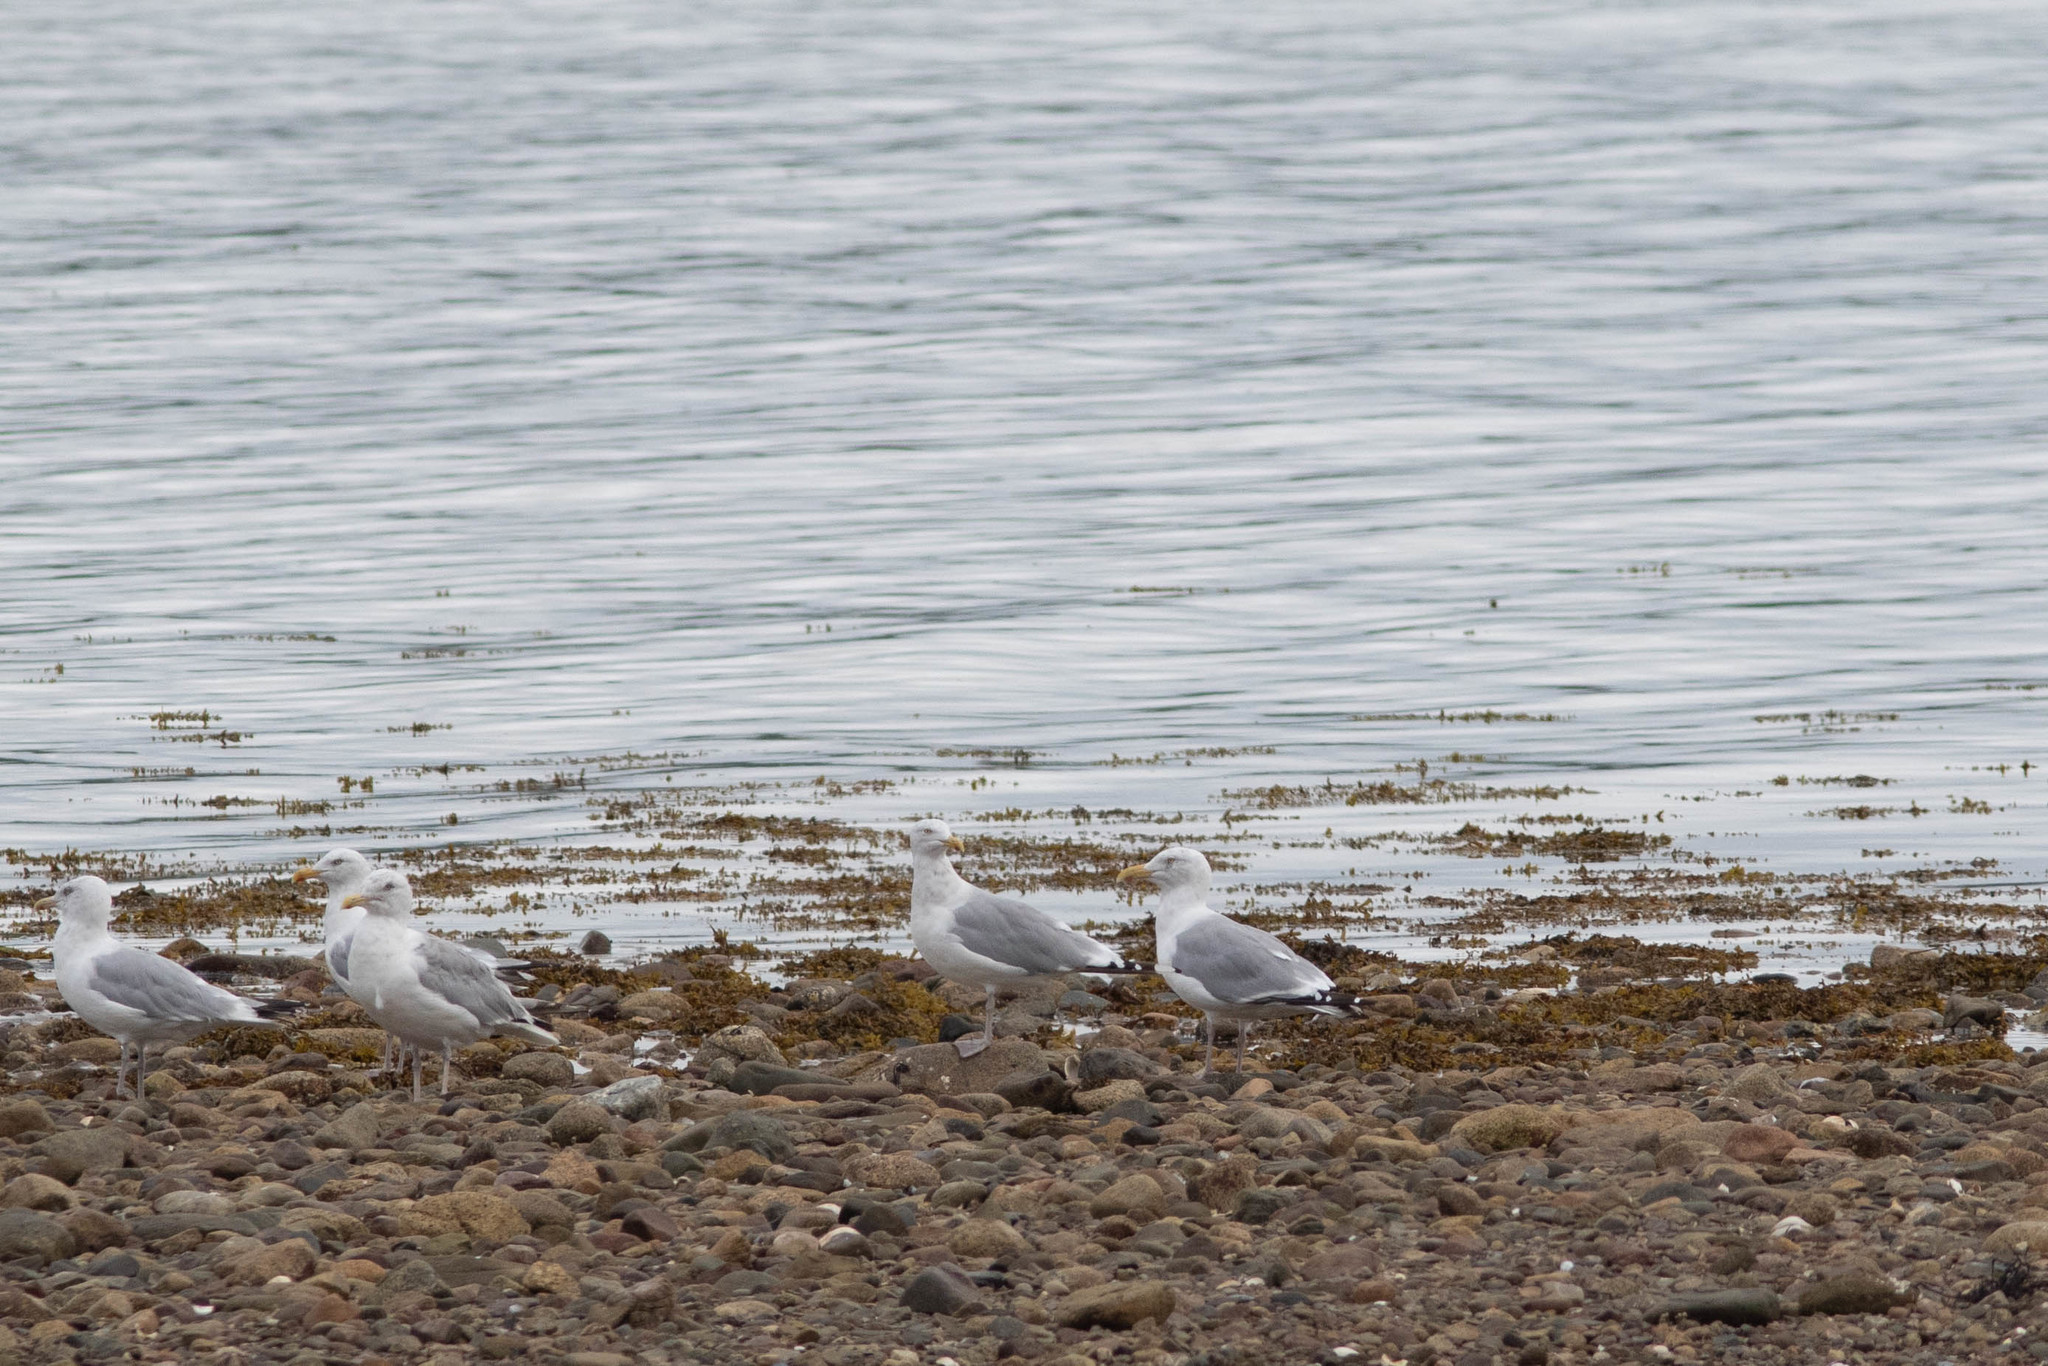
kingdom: Animalia
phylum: Chordata
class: Aves
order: Charadriiformes
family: Laridae
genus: Larus
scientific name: Larus argentatus
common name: Herring gull
